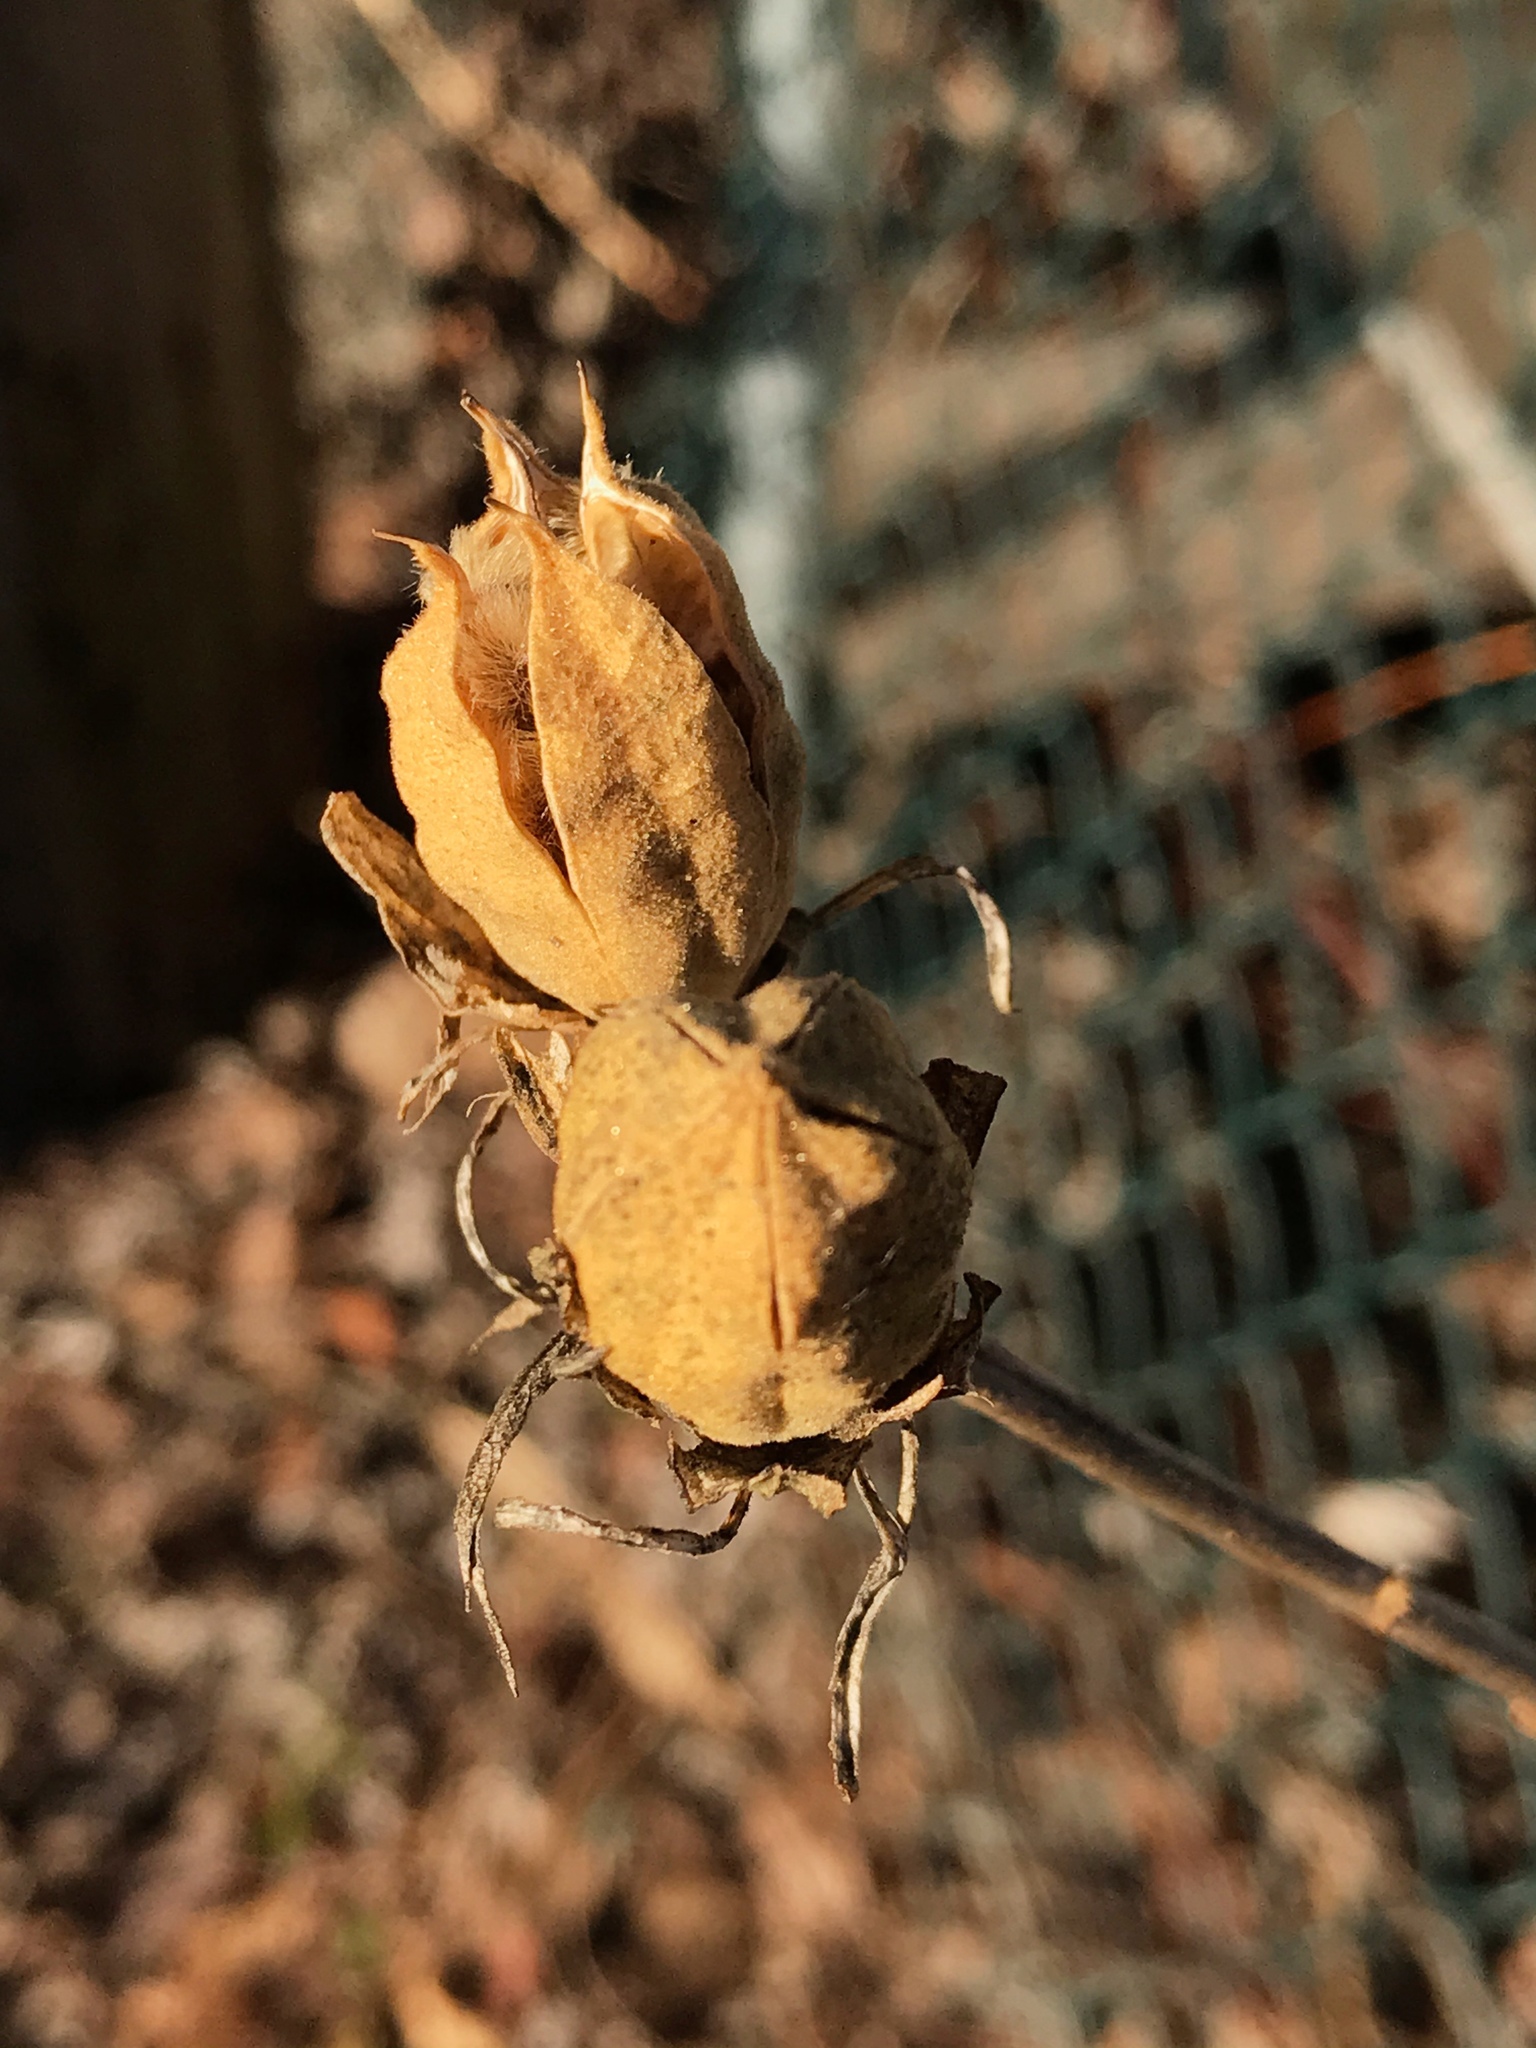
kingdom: Plantae
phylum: Tracheophyta
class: Magnoliopsida
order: Malvales
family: Malvaceae
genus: Hibiscus
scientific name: Hibiscus syriacus
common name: Syrian ketmia
